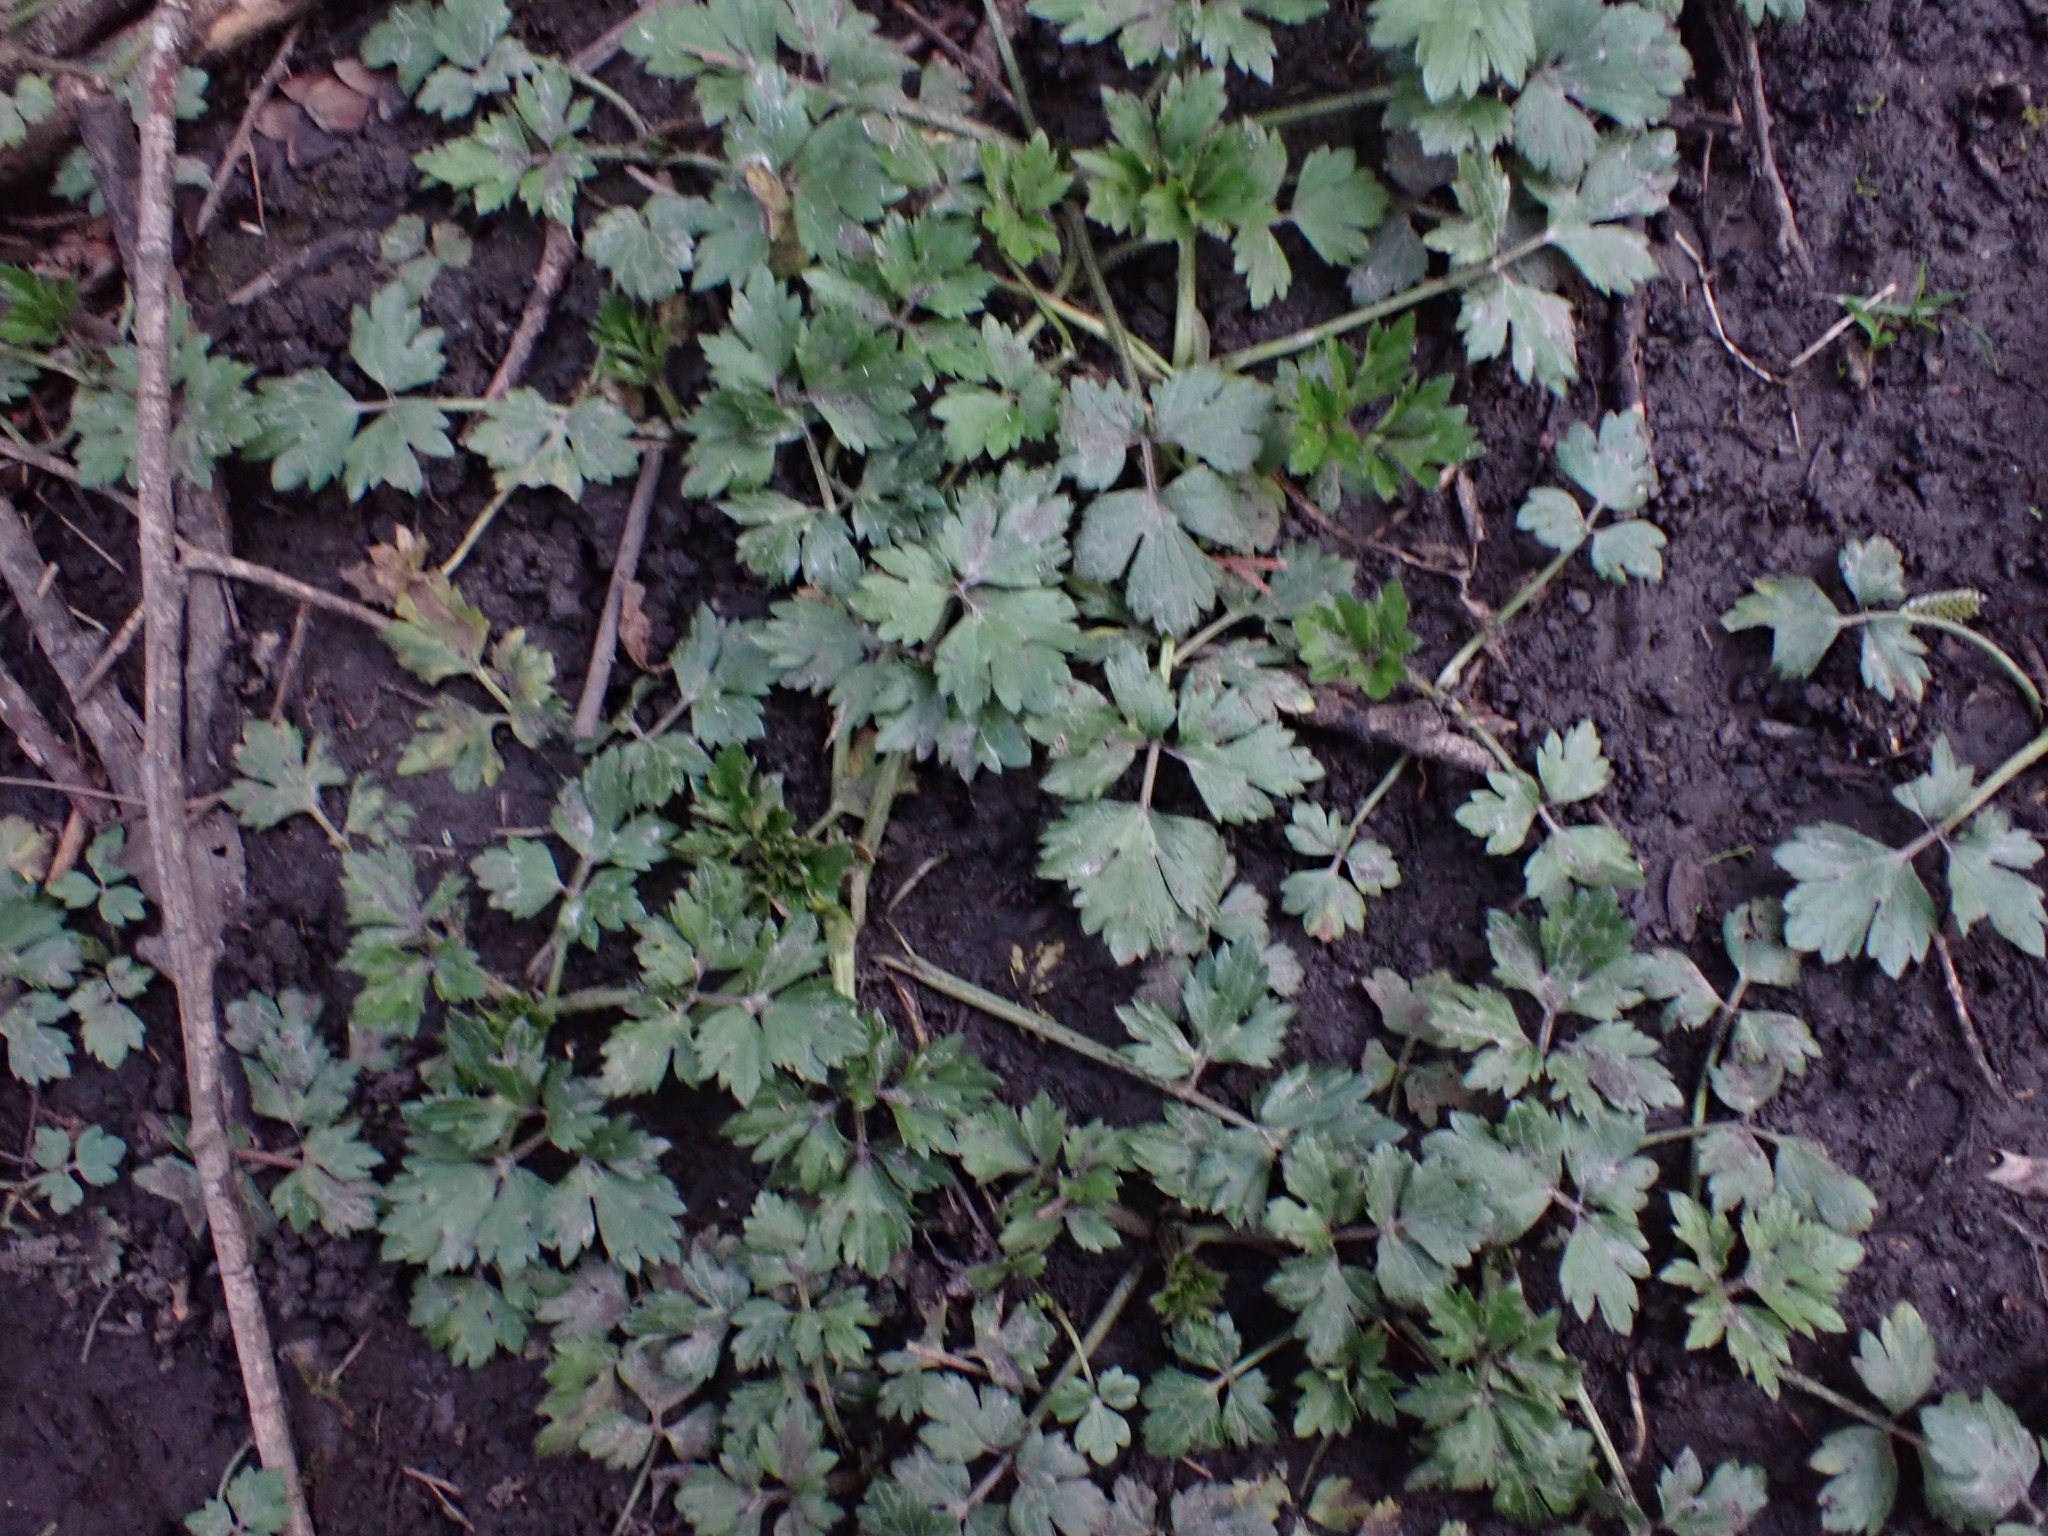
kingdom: Plantae
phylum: Tracheophyta
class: Magnoliopsida
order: Ranunculales
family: Ranunculaceae
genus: Ranunculus
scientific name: Ranunculus repens
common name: Creeping buttercup
